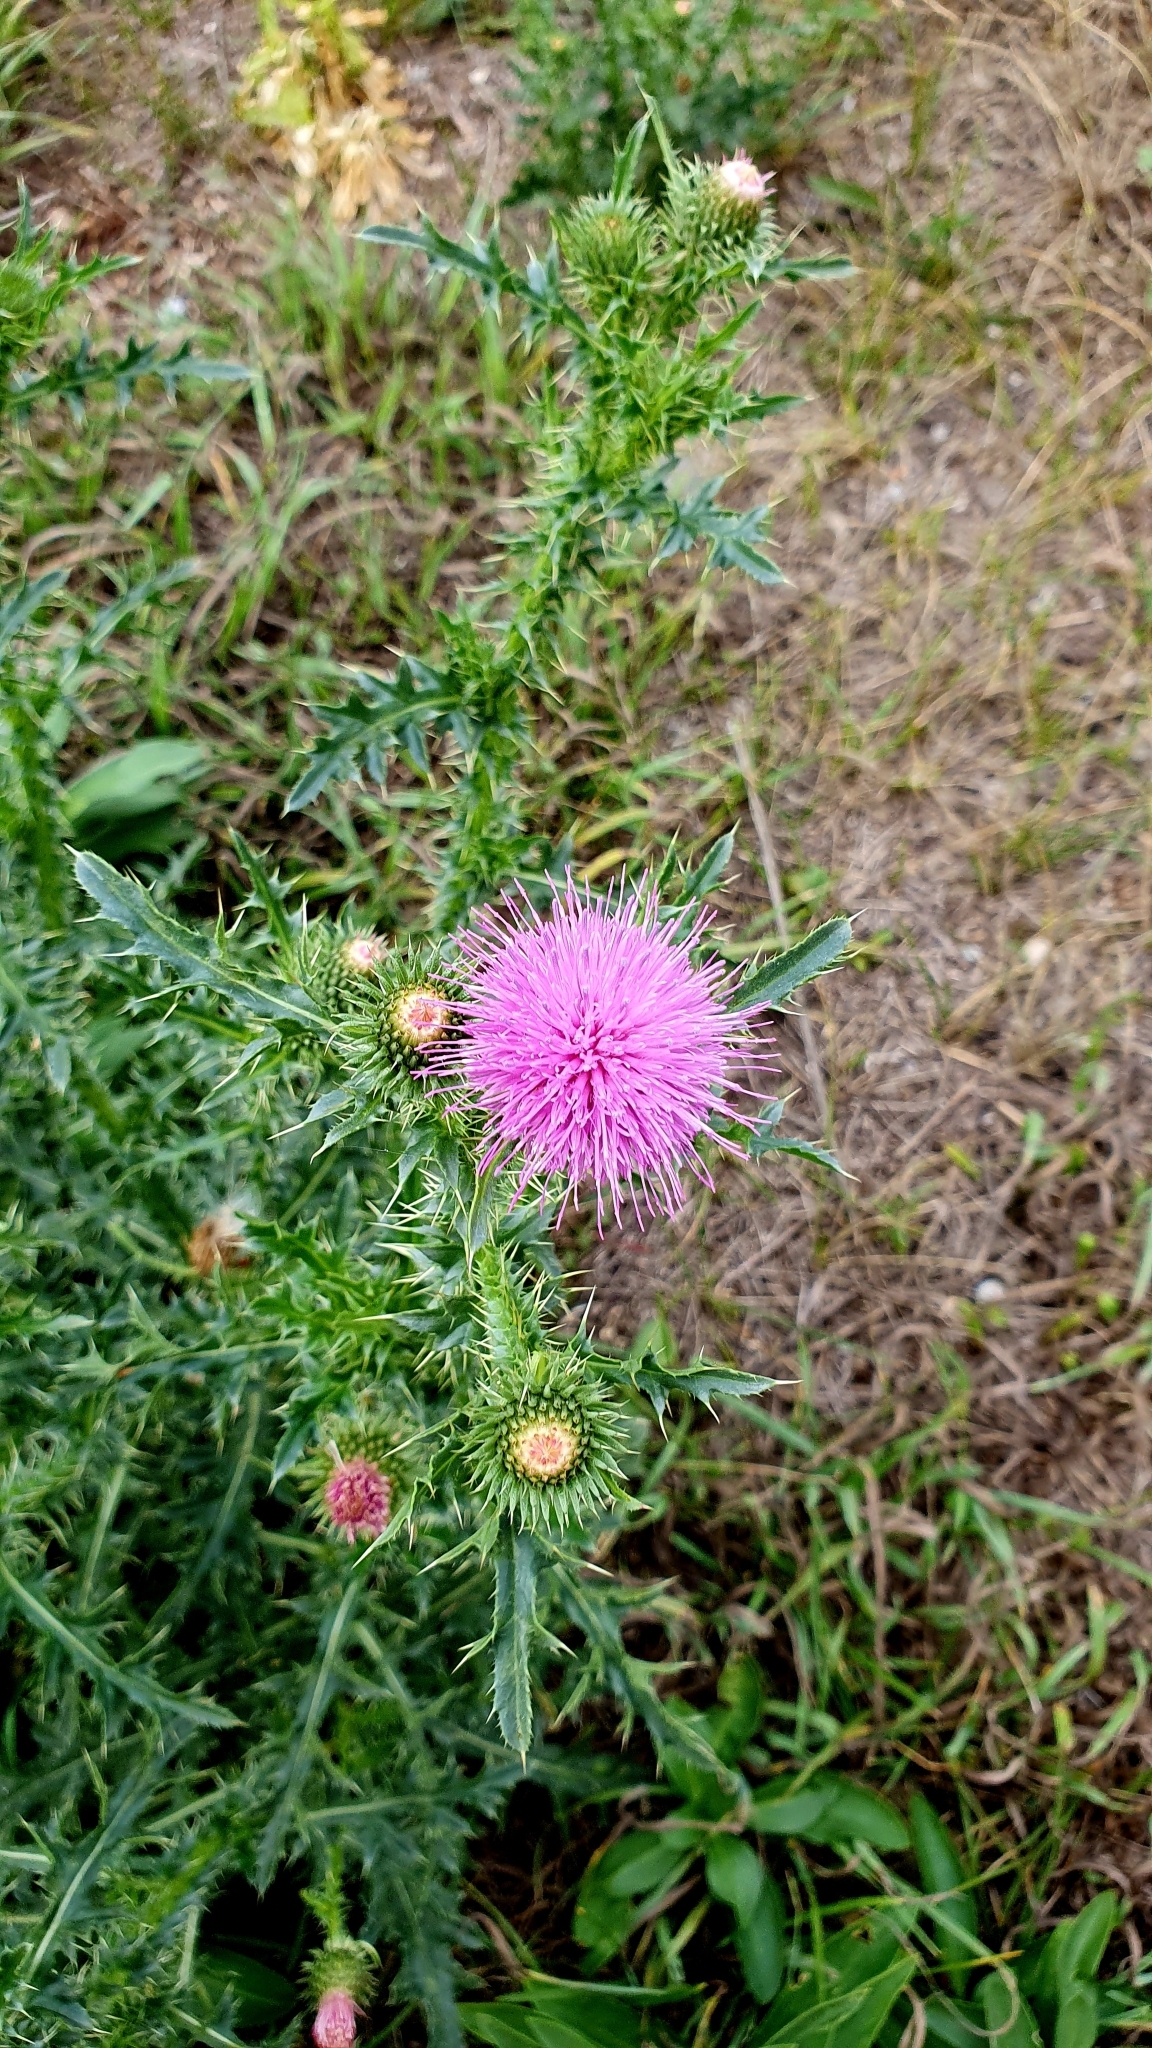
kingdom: Plantae
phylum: Tracheophyta
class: Magnoliopsida
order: Asterales
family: Asteraceae
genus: Carduus
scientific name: Carduus acanthoides
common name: Plumeless thistle
